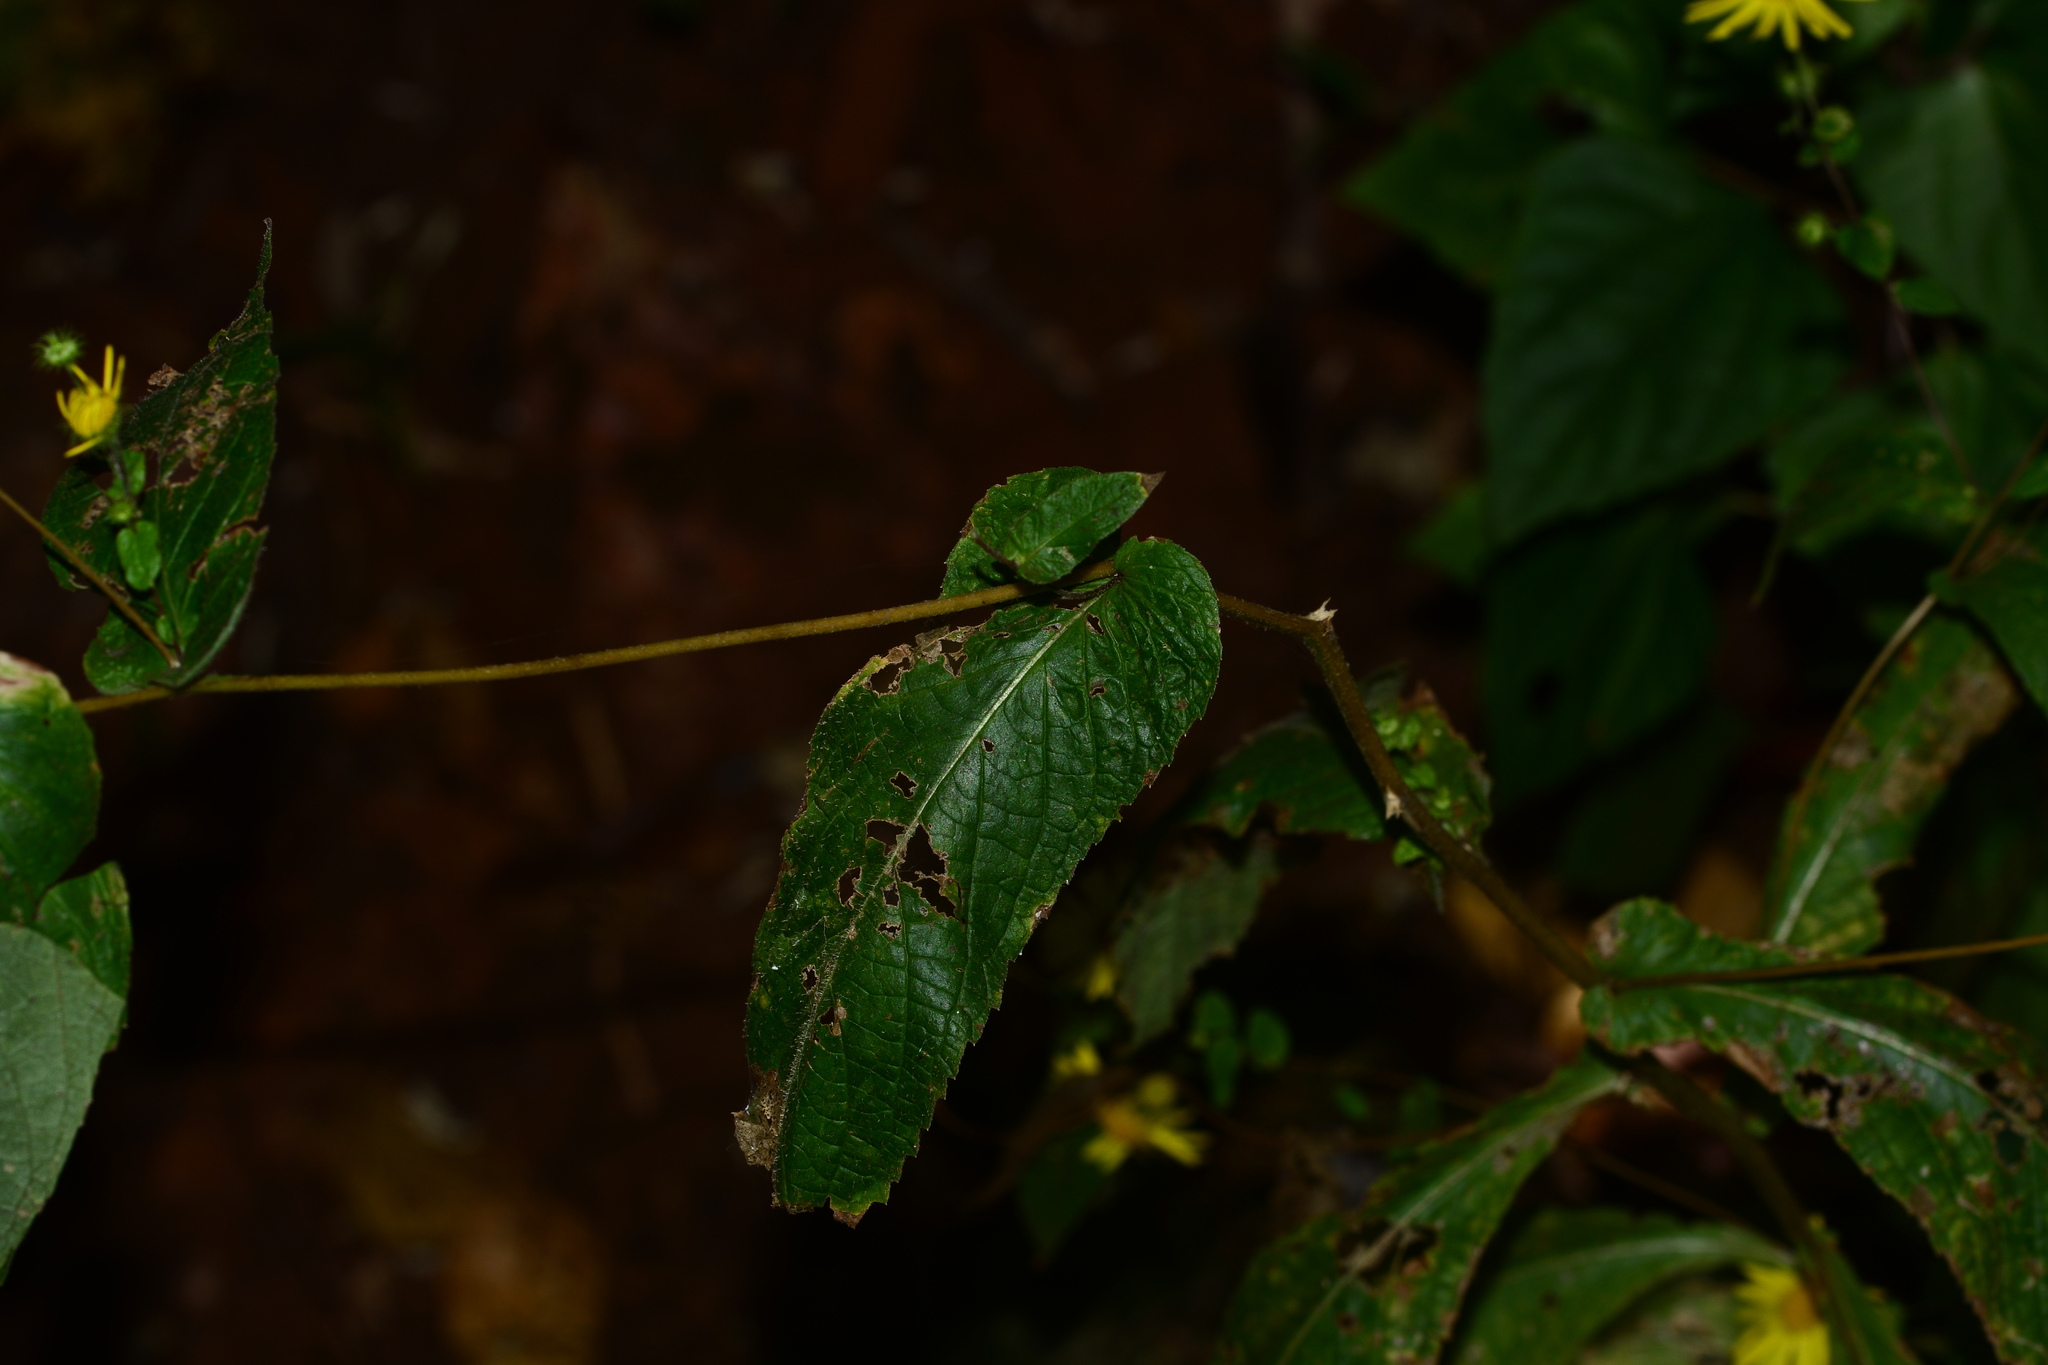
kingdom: Plantae
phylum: Tracheophyta
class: Magnoliopsida
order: Asterales
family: Asteraceae
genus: Vicoa
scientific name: Vicoa gokhalei
